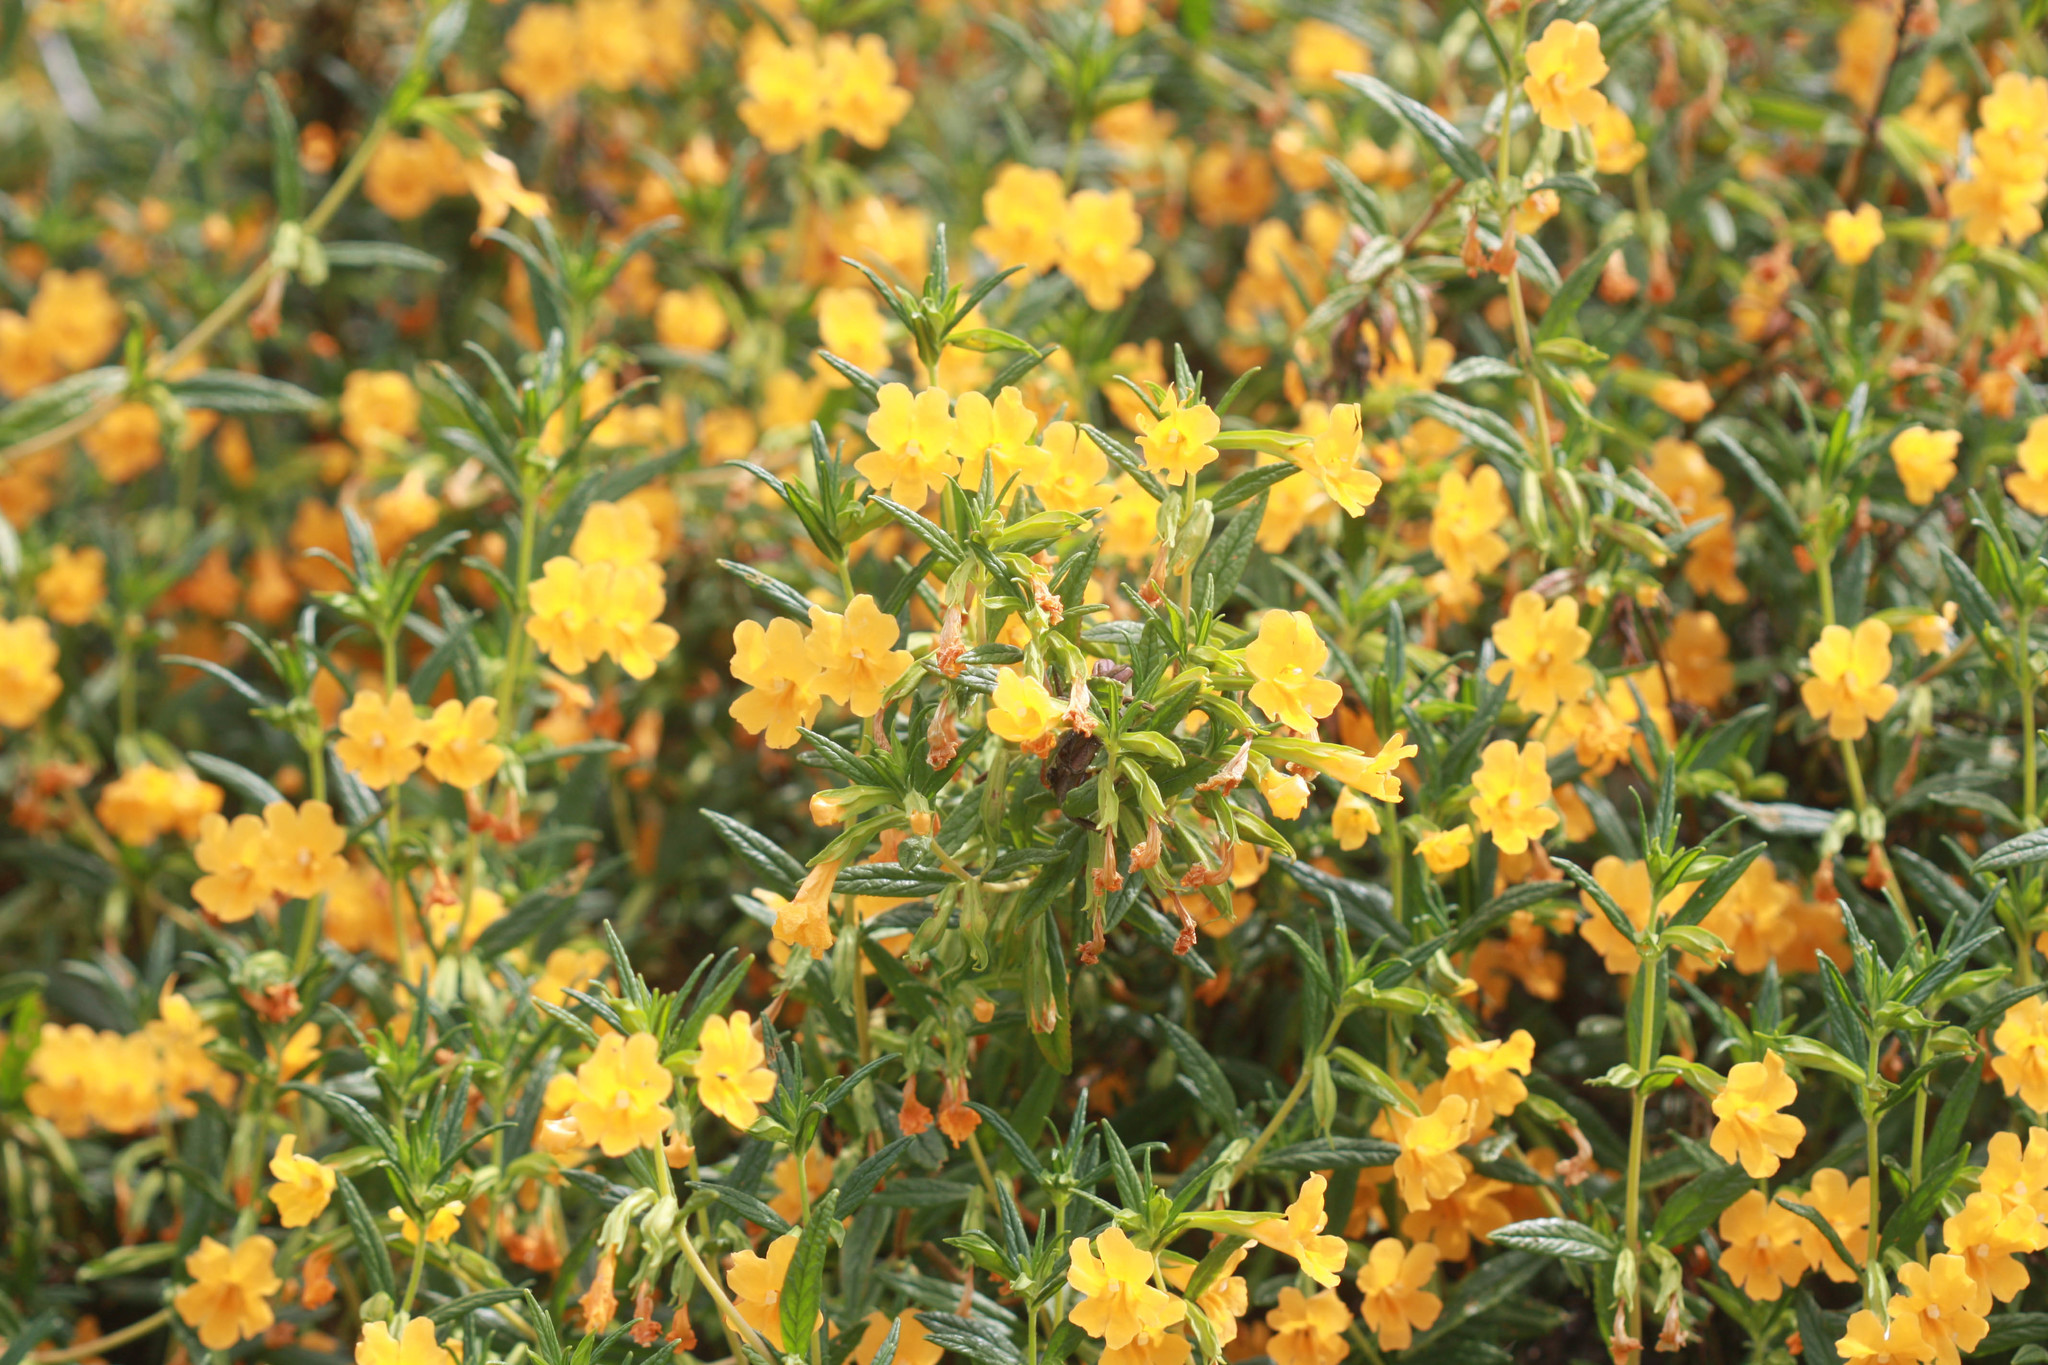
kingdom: Plantae
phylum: Tracheophyta
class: Magnoliopsida
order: Lamiales
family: Phrymaceae
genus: Diplacus
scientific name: Diplacus aurantiacus
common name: Bush monkey-flower
